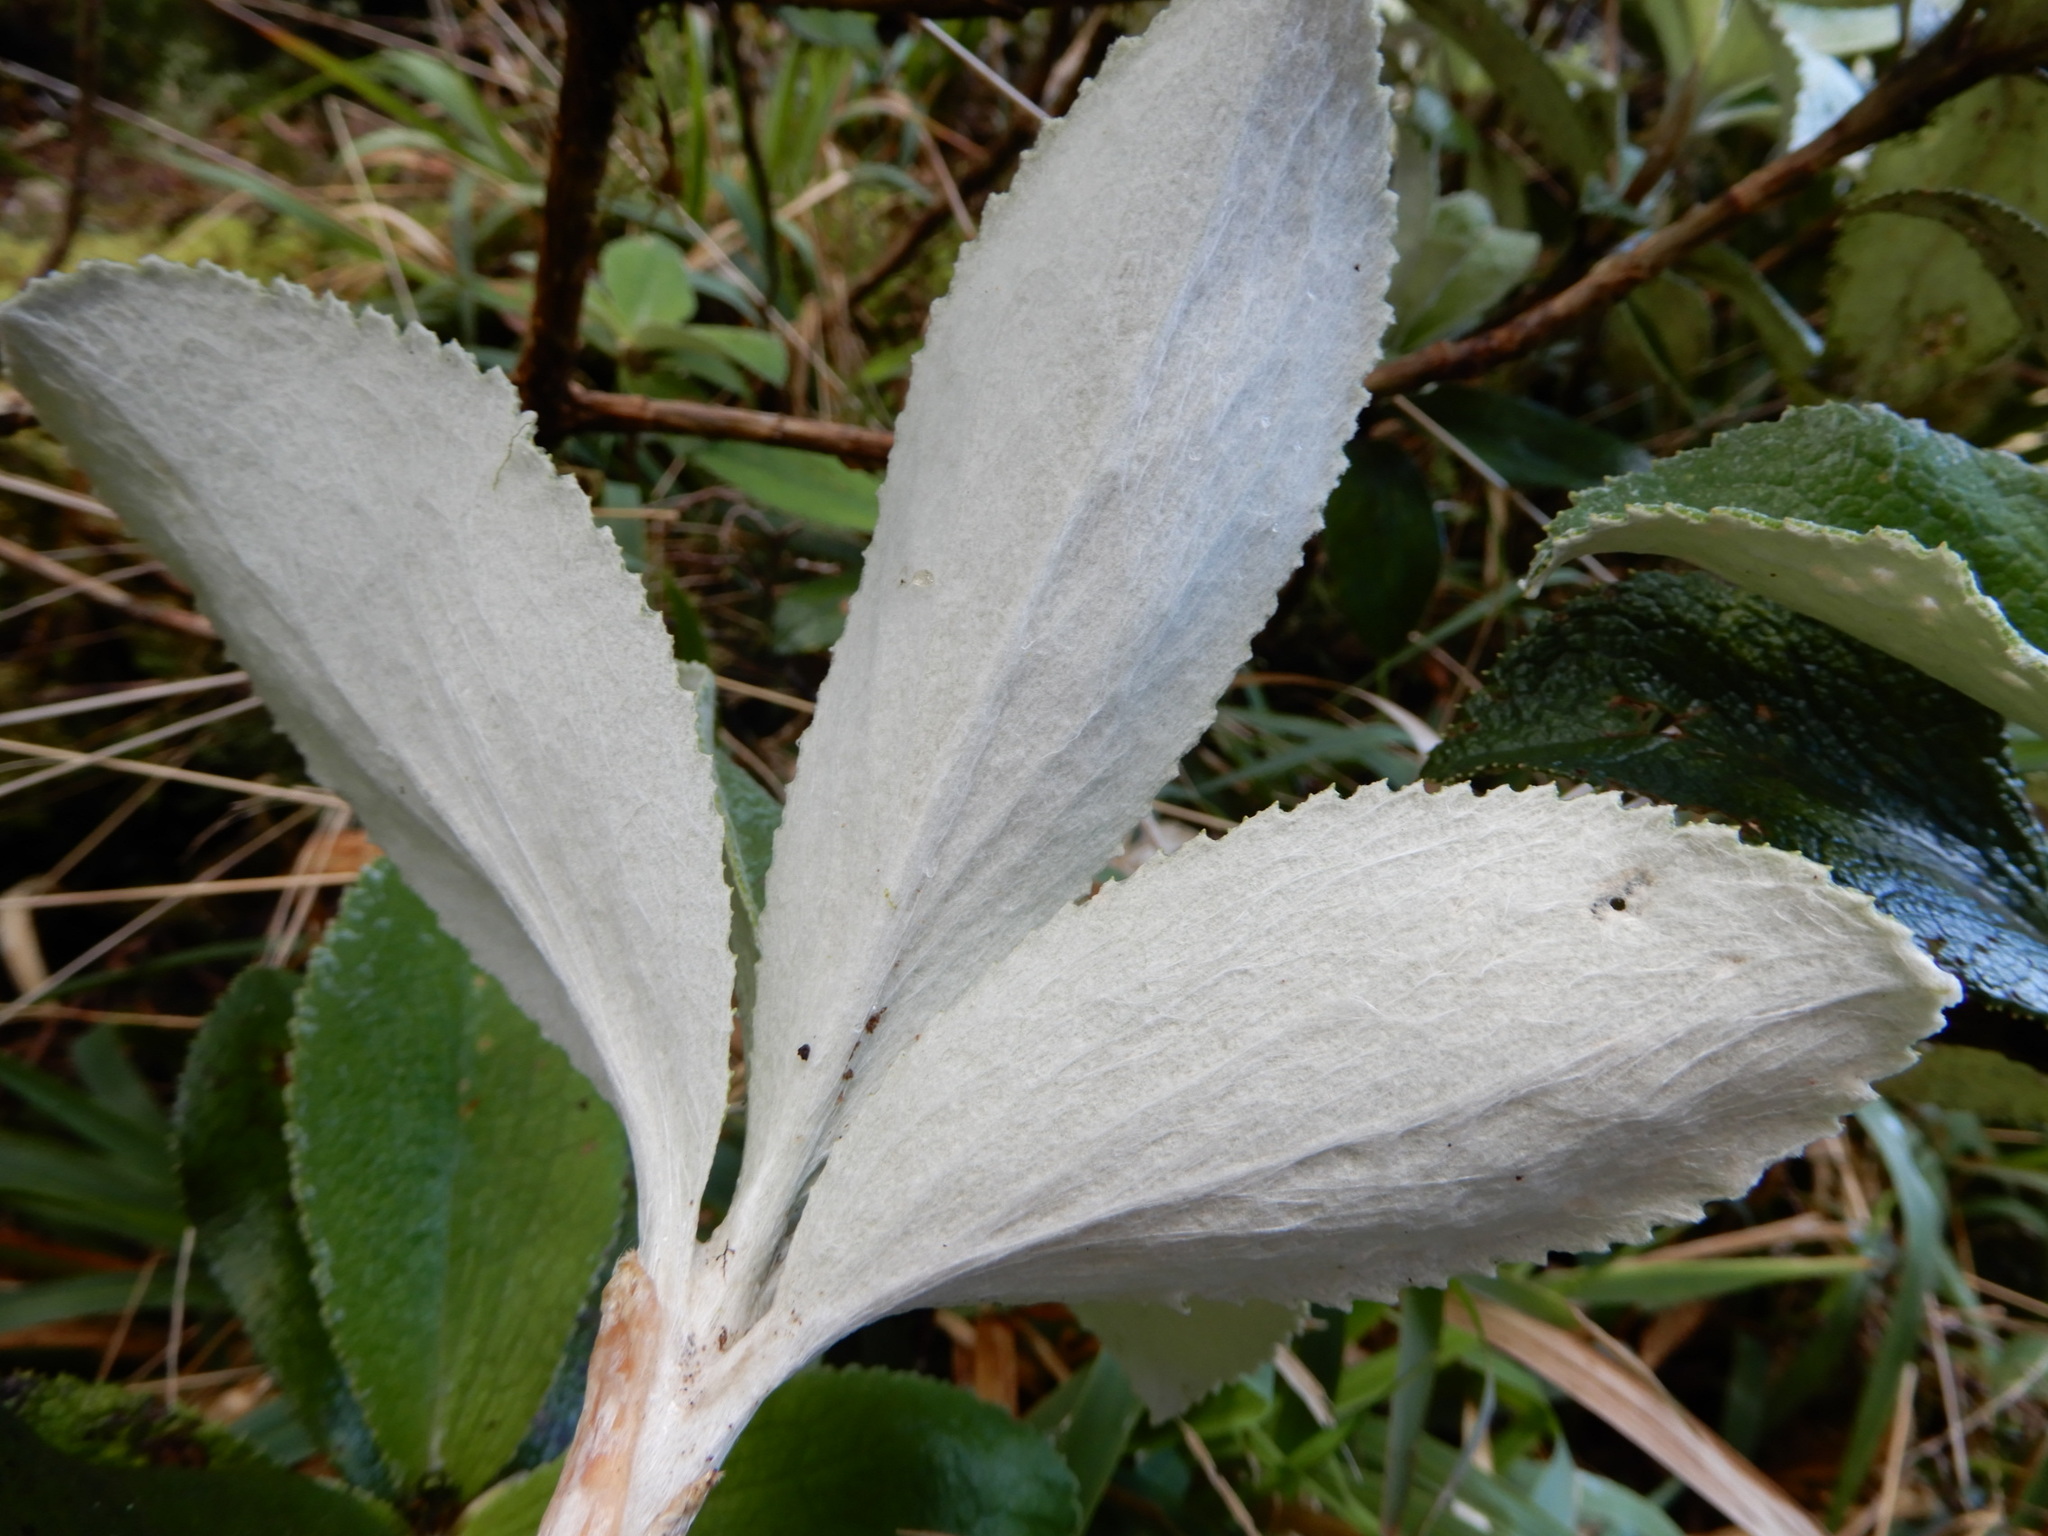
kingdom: Plantae
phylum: Tracheophyta
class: Magnoliopsida
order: Asterales
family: Asteraceae
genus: Macrolearia
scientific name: Macrolearia colensoi
